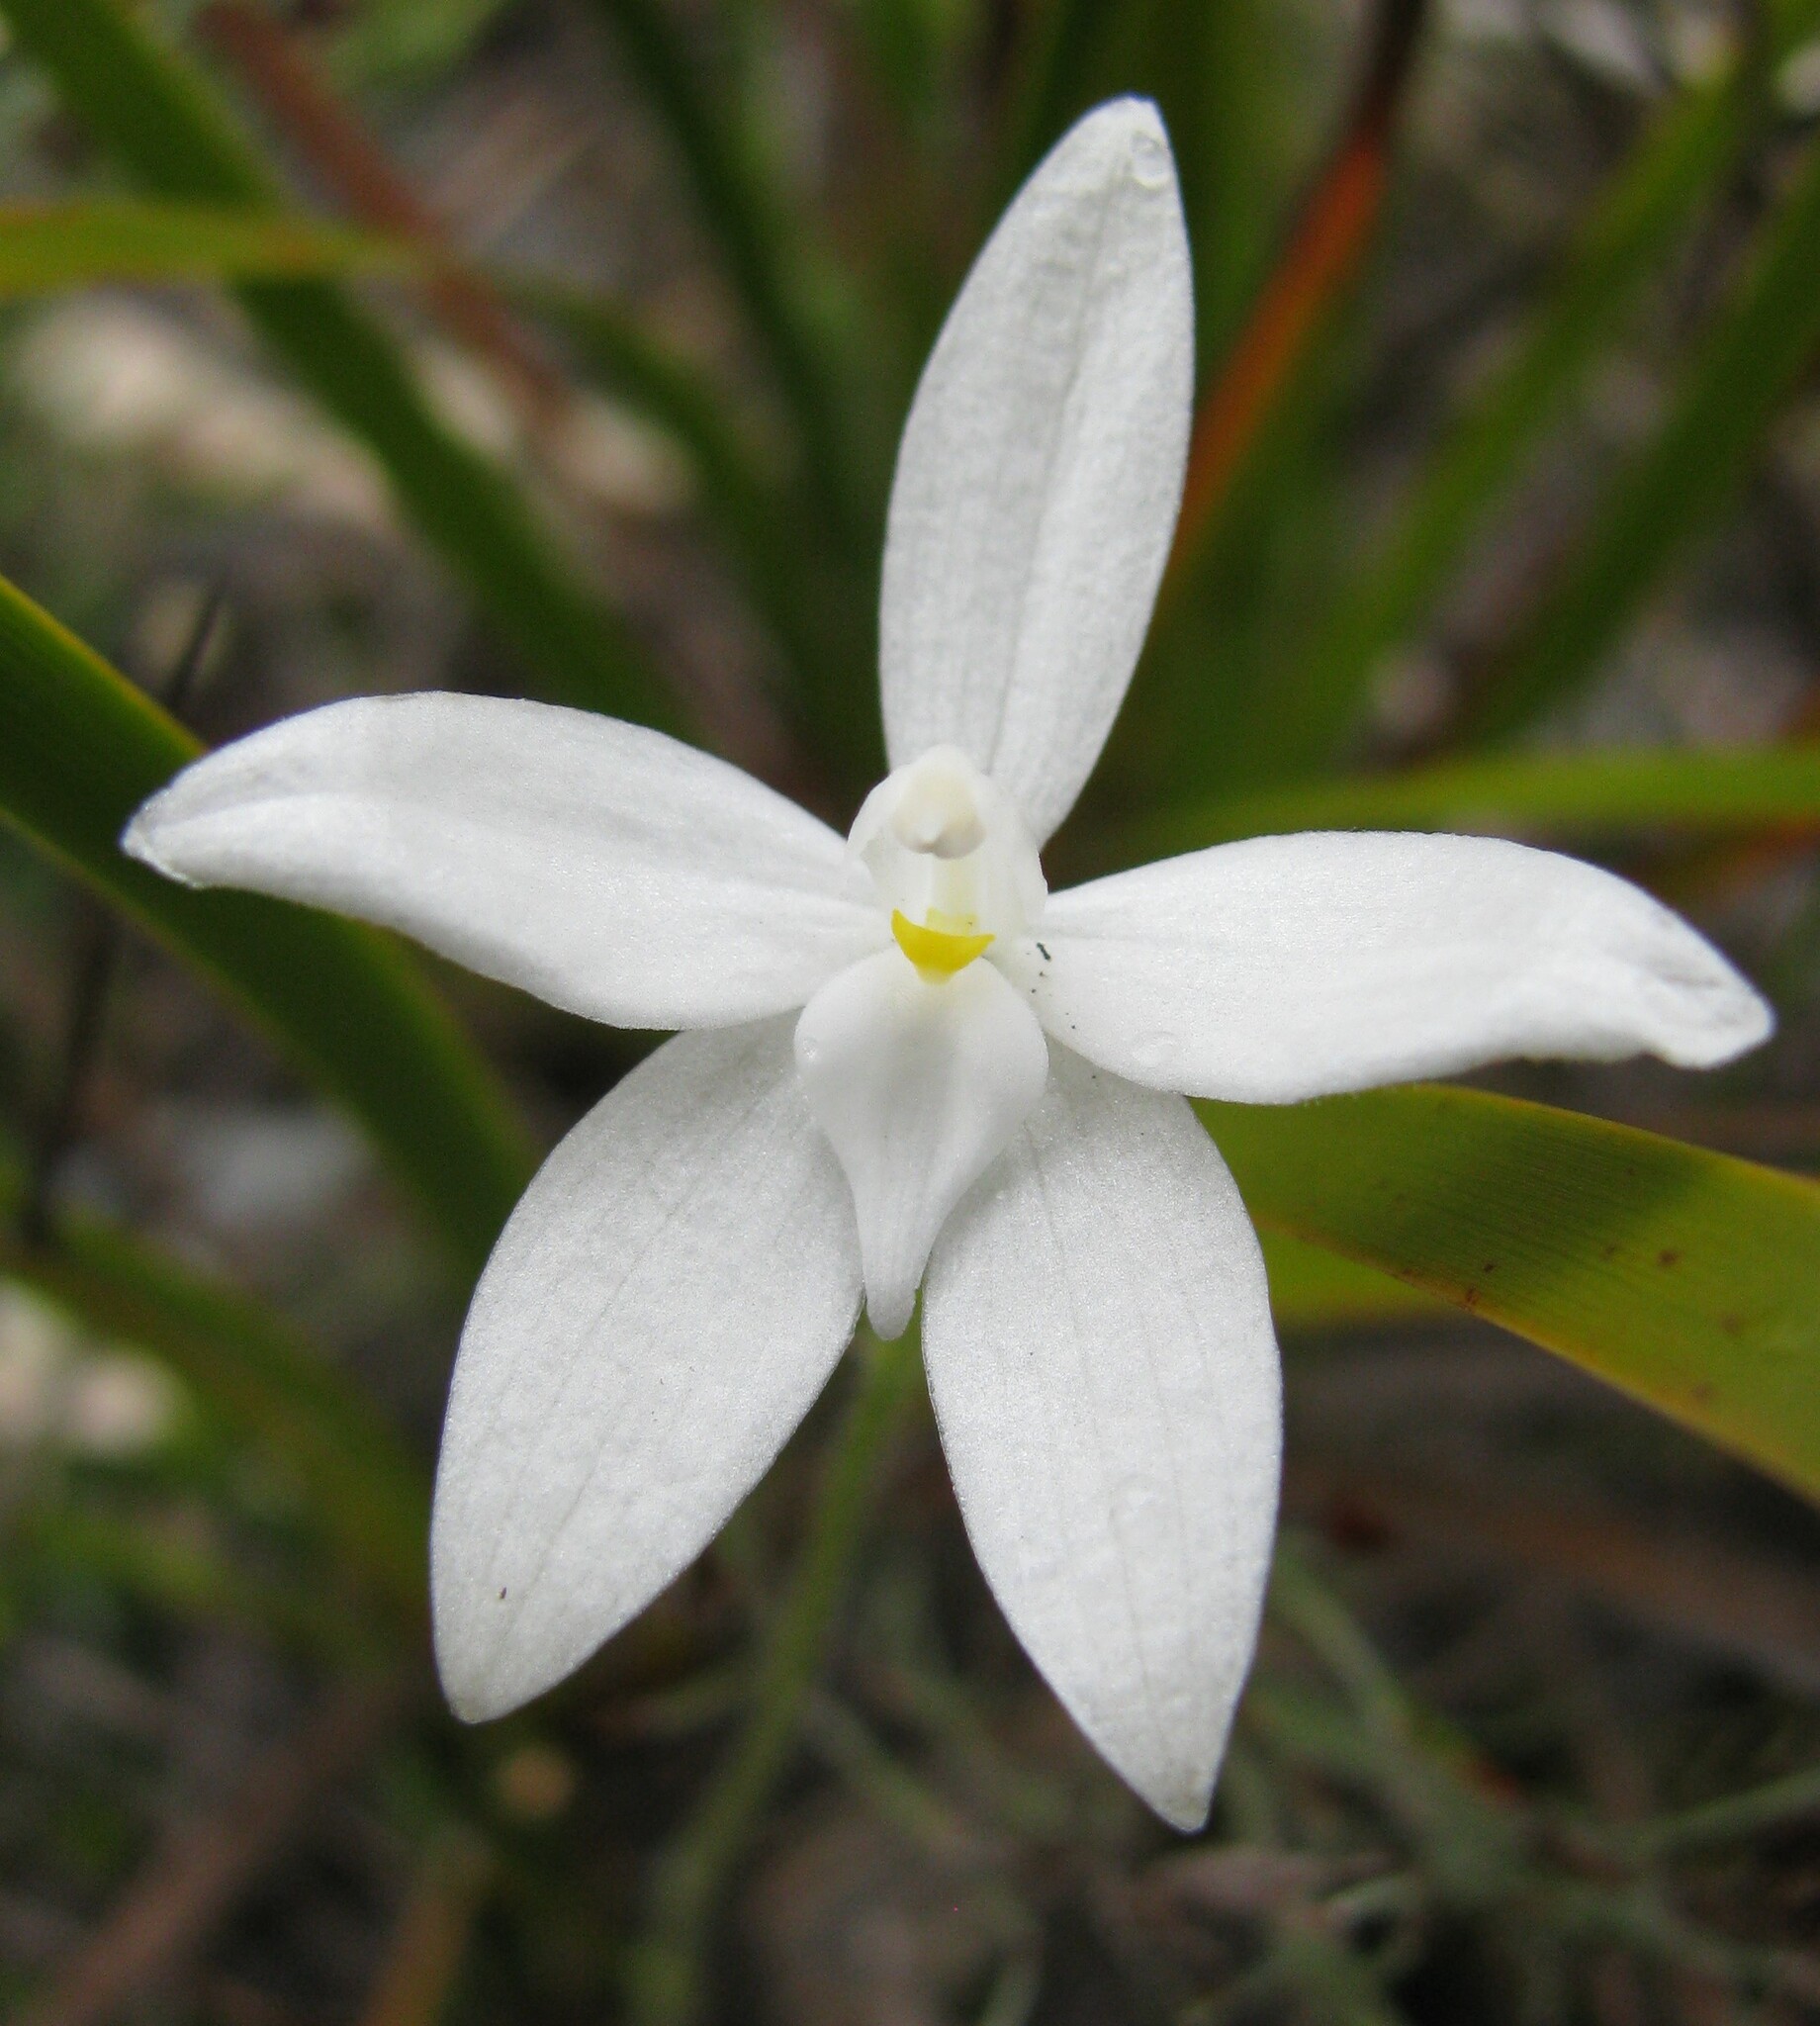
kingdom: Plantae
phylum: Tracheophyta
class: Liliopsida
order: Asparagales
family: Orchidaceae
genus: Caladenia
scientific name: Caladenia major
